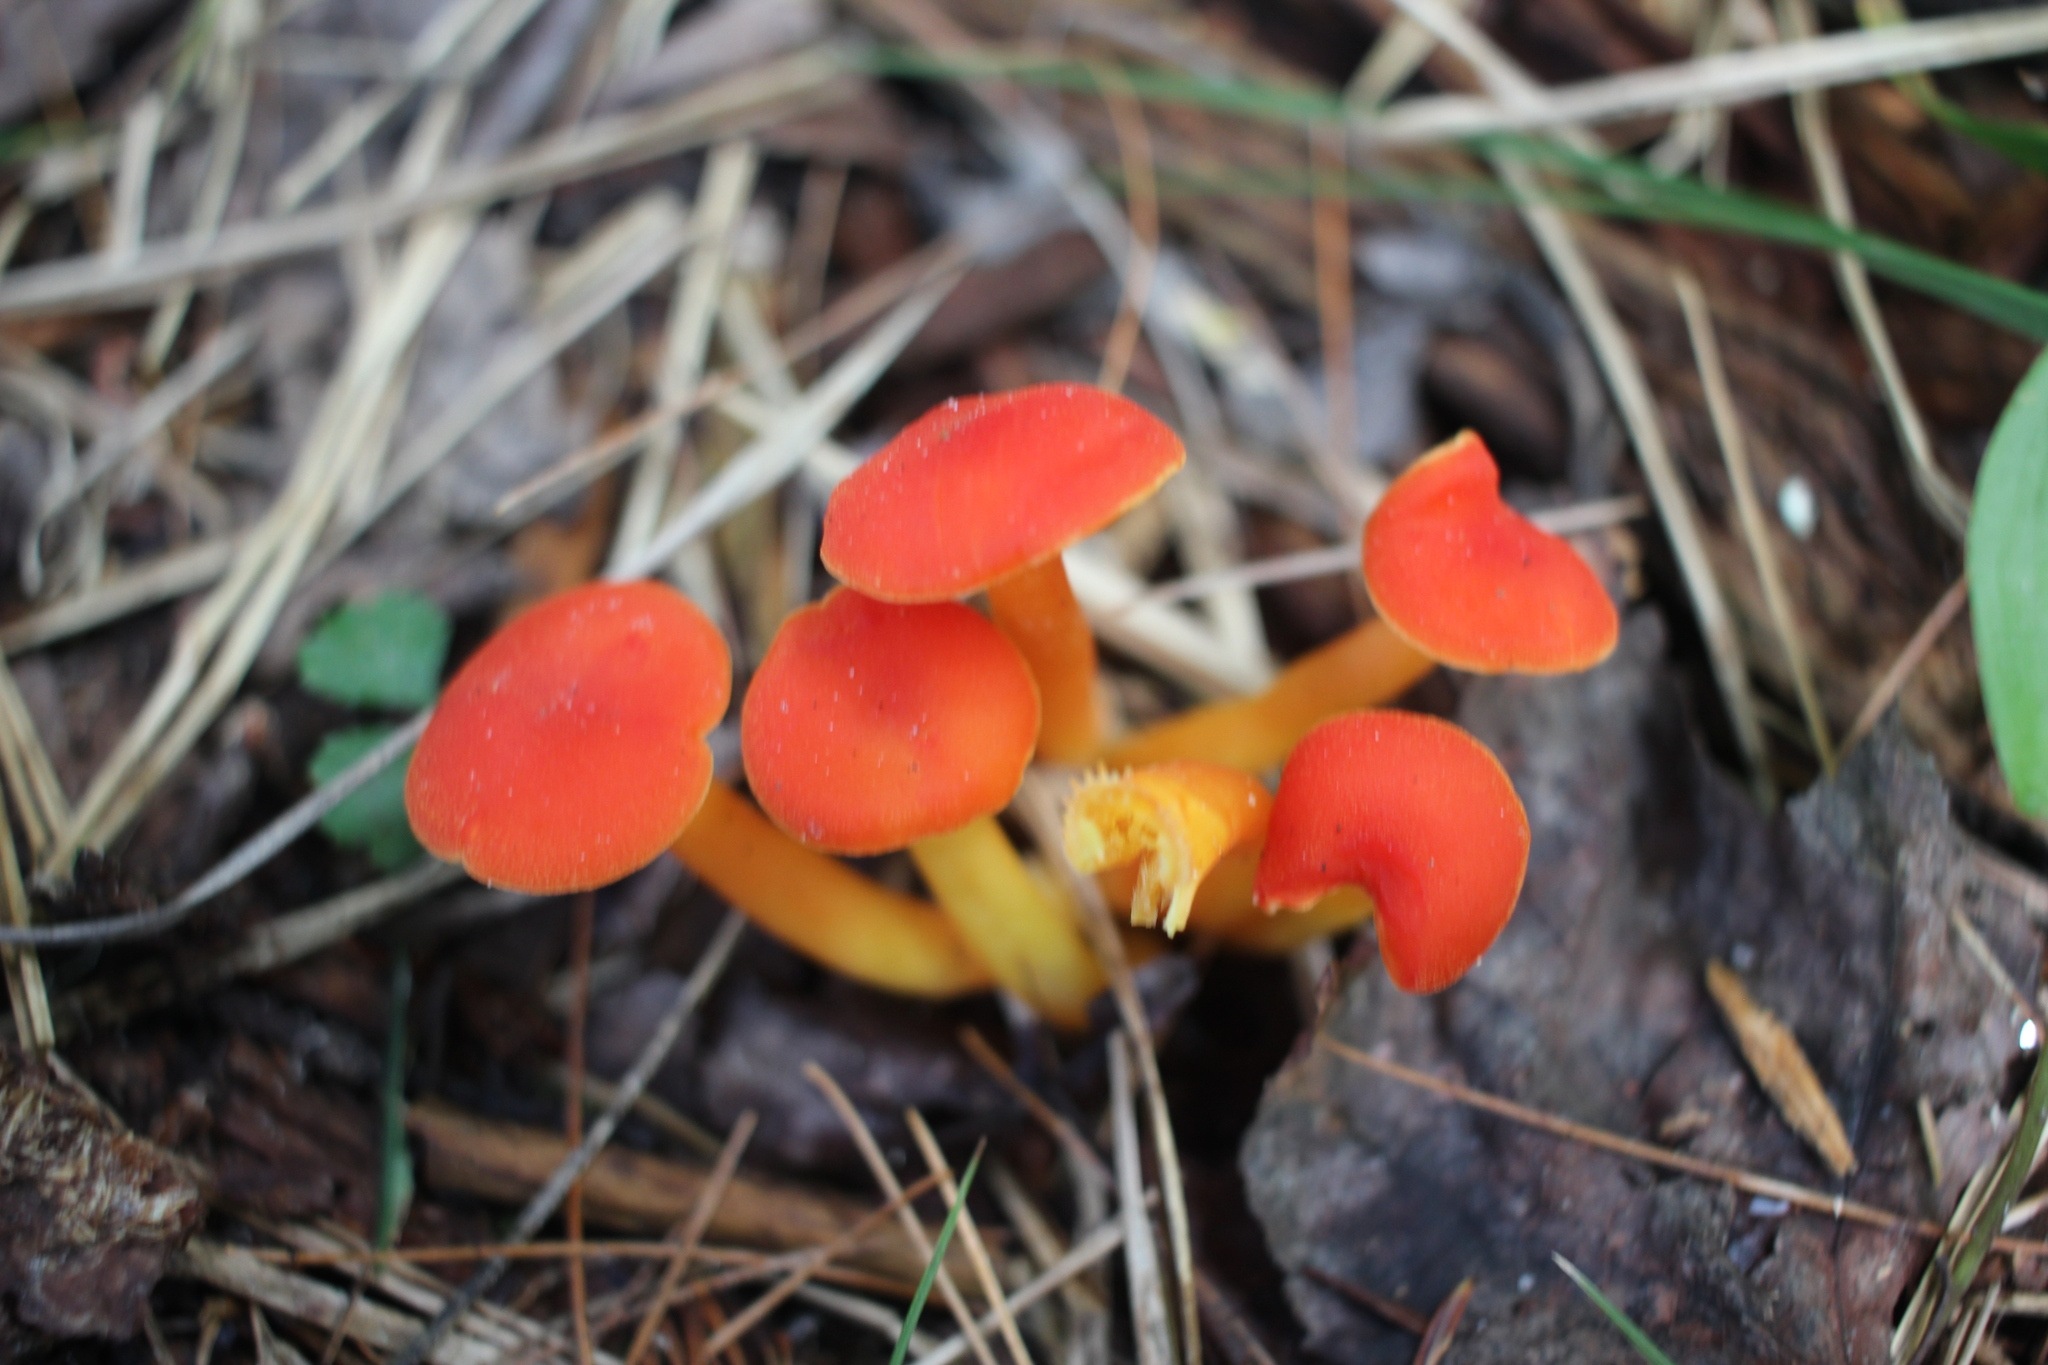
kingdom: Fungi
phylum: Basidiomycota
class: Agaricomycetes
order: Agaricales
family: Hygrophoraceae
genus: Hygrocybe
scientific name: Hygrocybe miniata
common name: Vermilion waxcap
